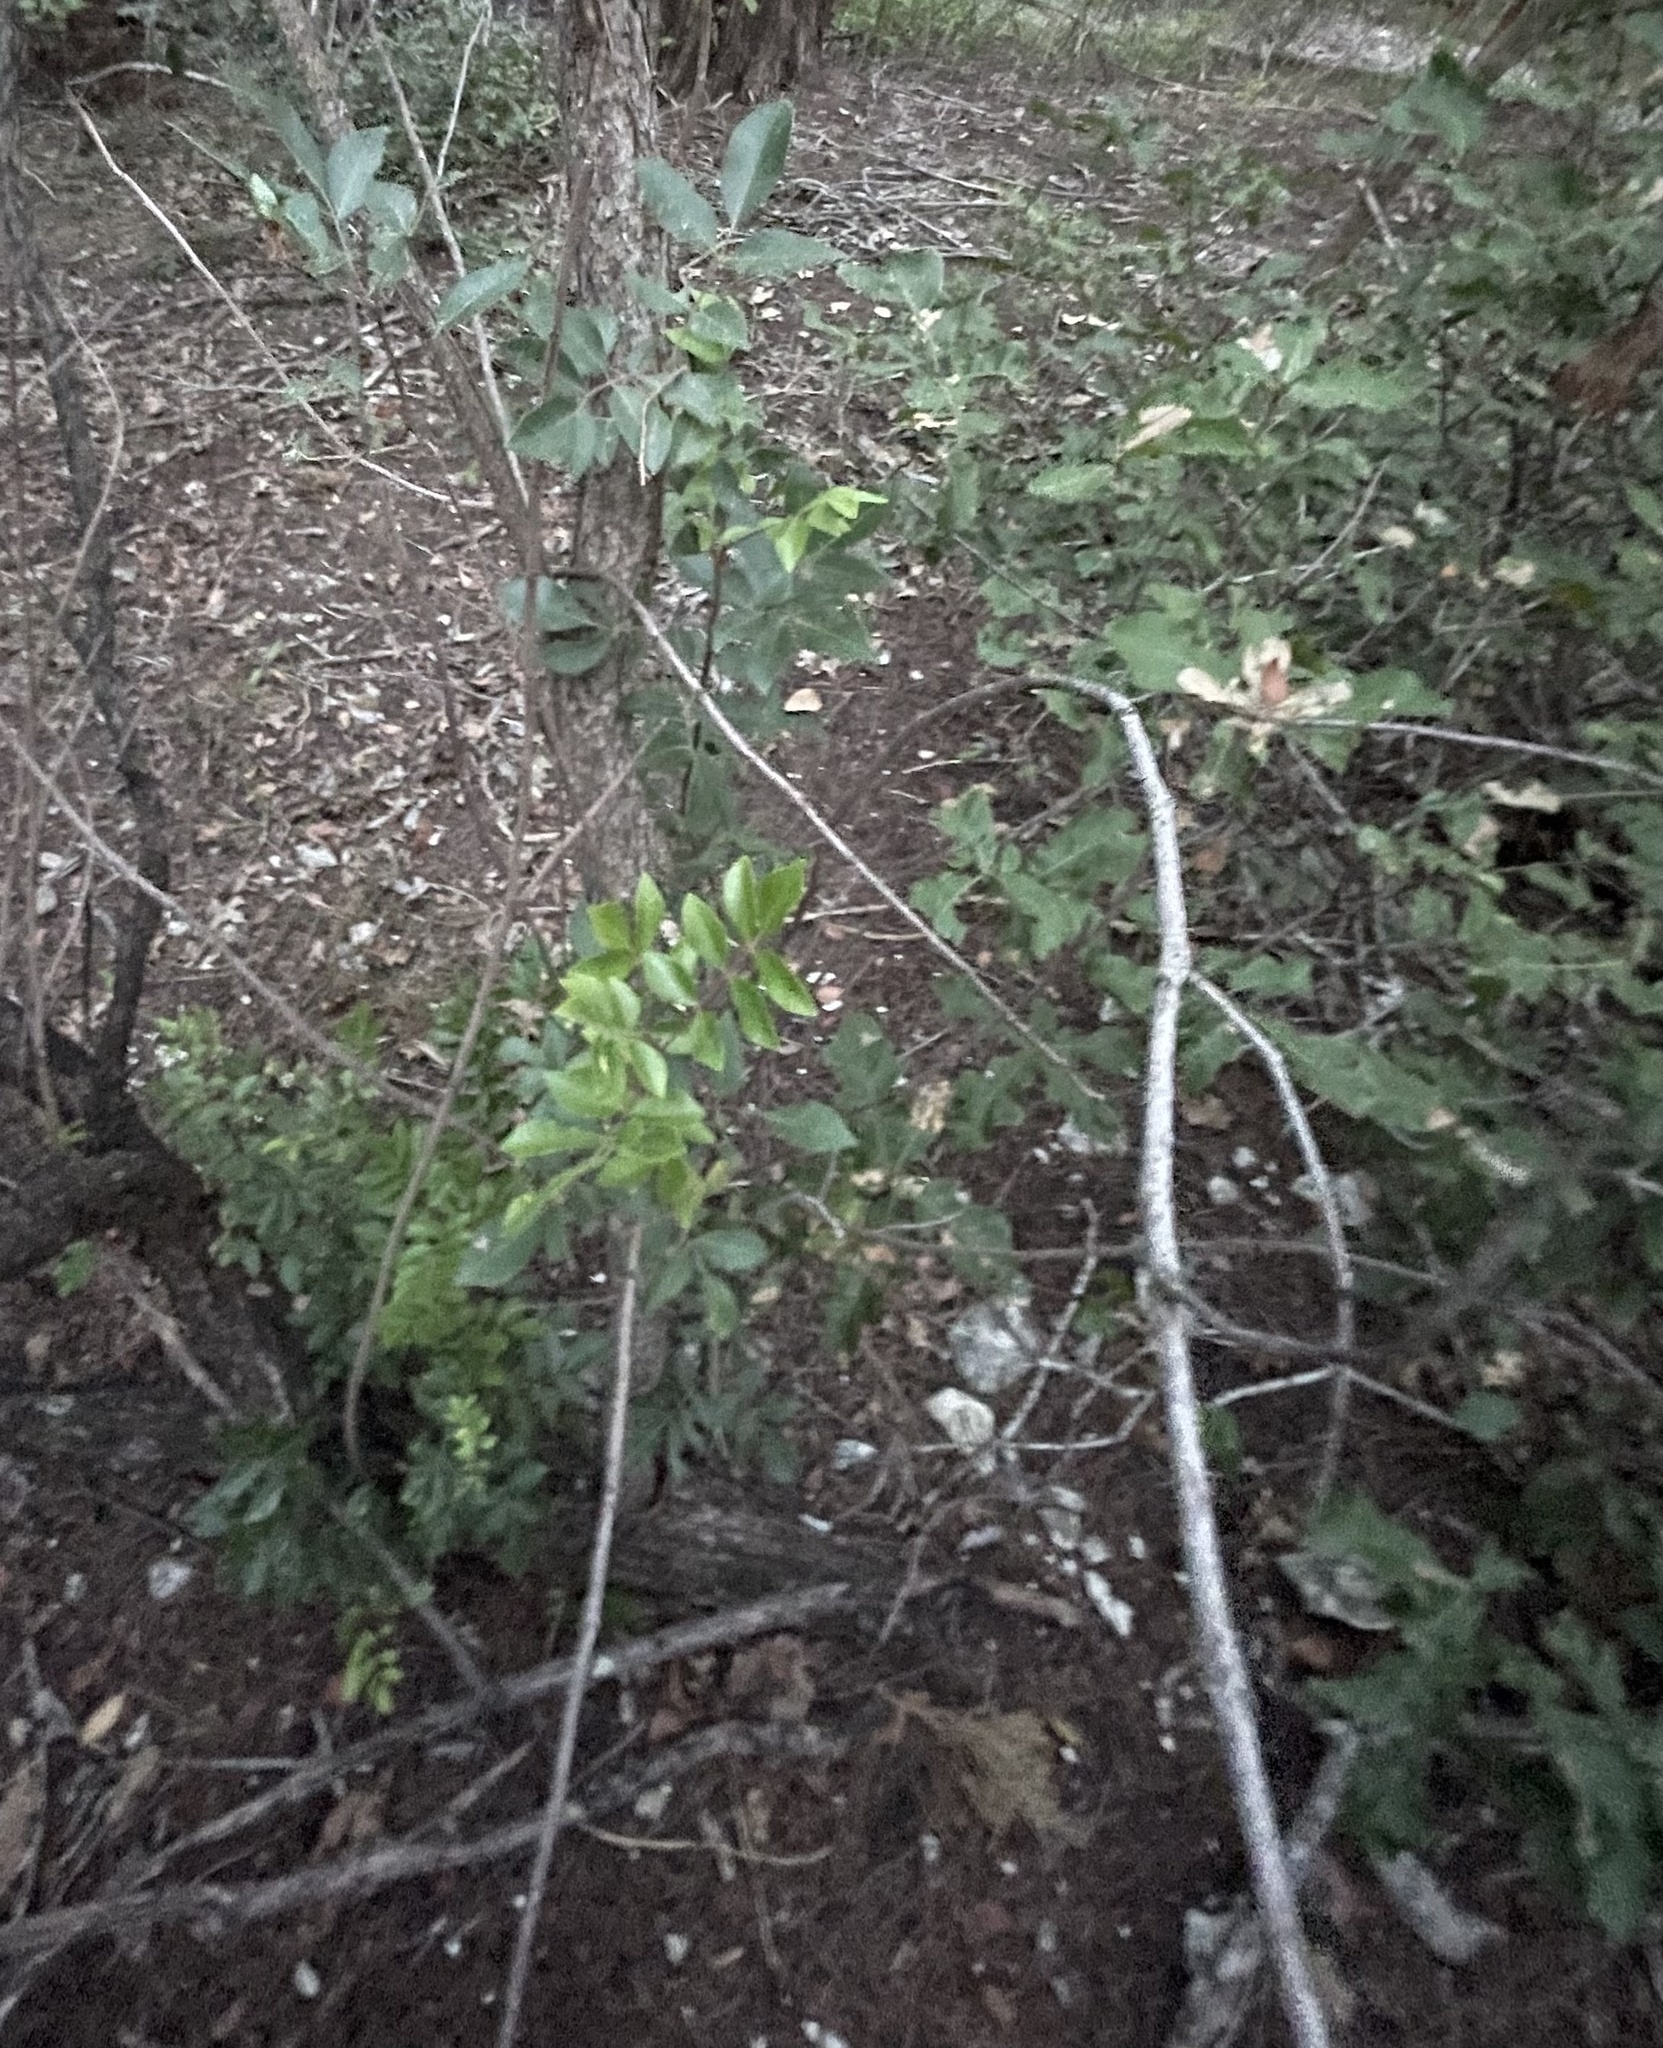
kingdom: Plantae
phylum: Tracheophyta
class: Magnoliopsida
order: Sapindales
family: Anacardiaceae
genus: Rhus
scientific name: Rhus virens
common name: Evergreen sumac
